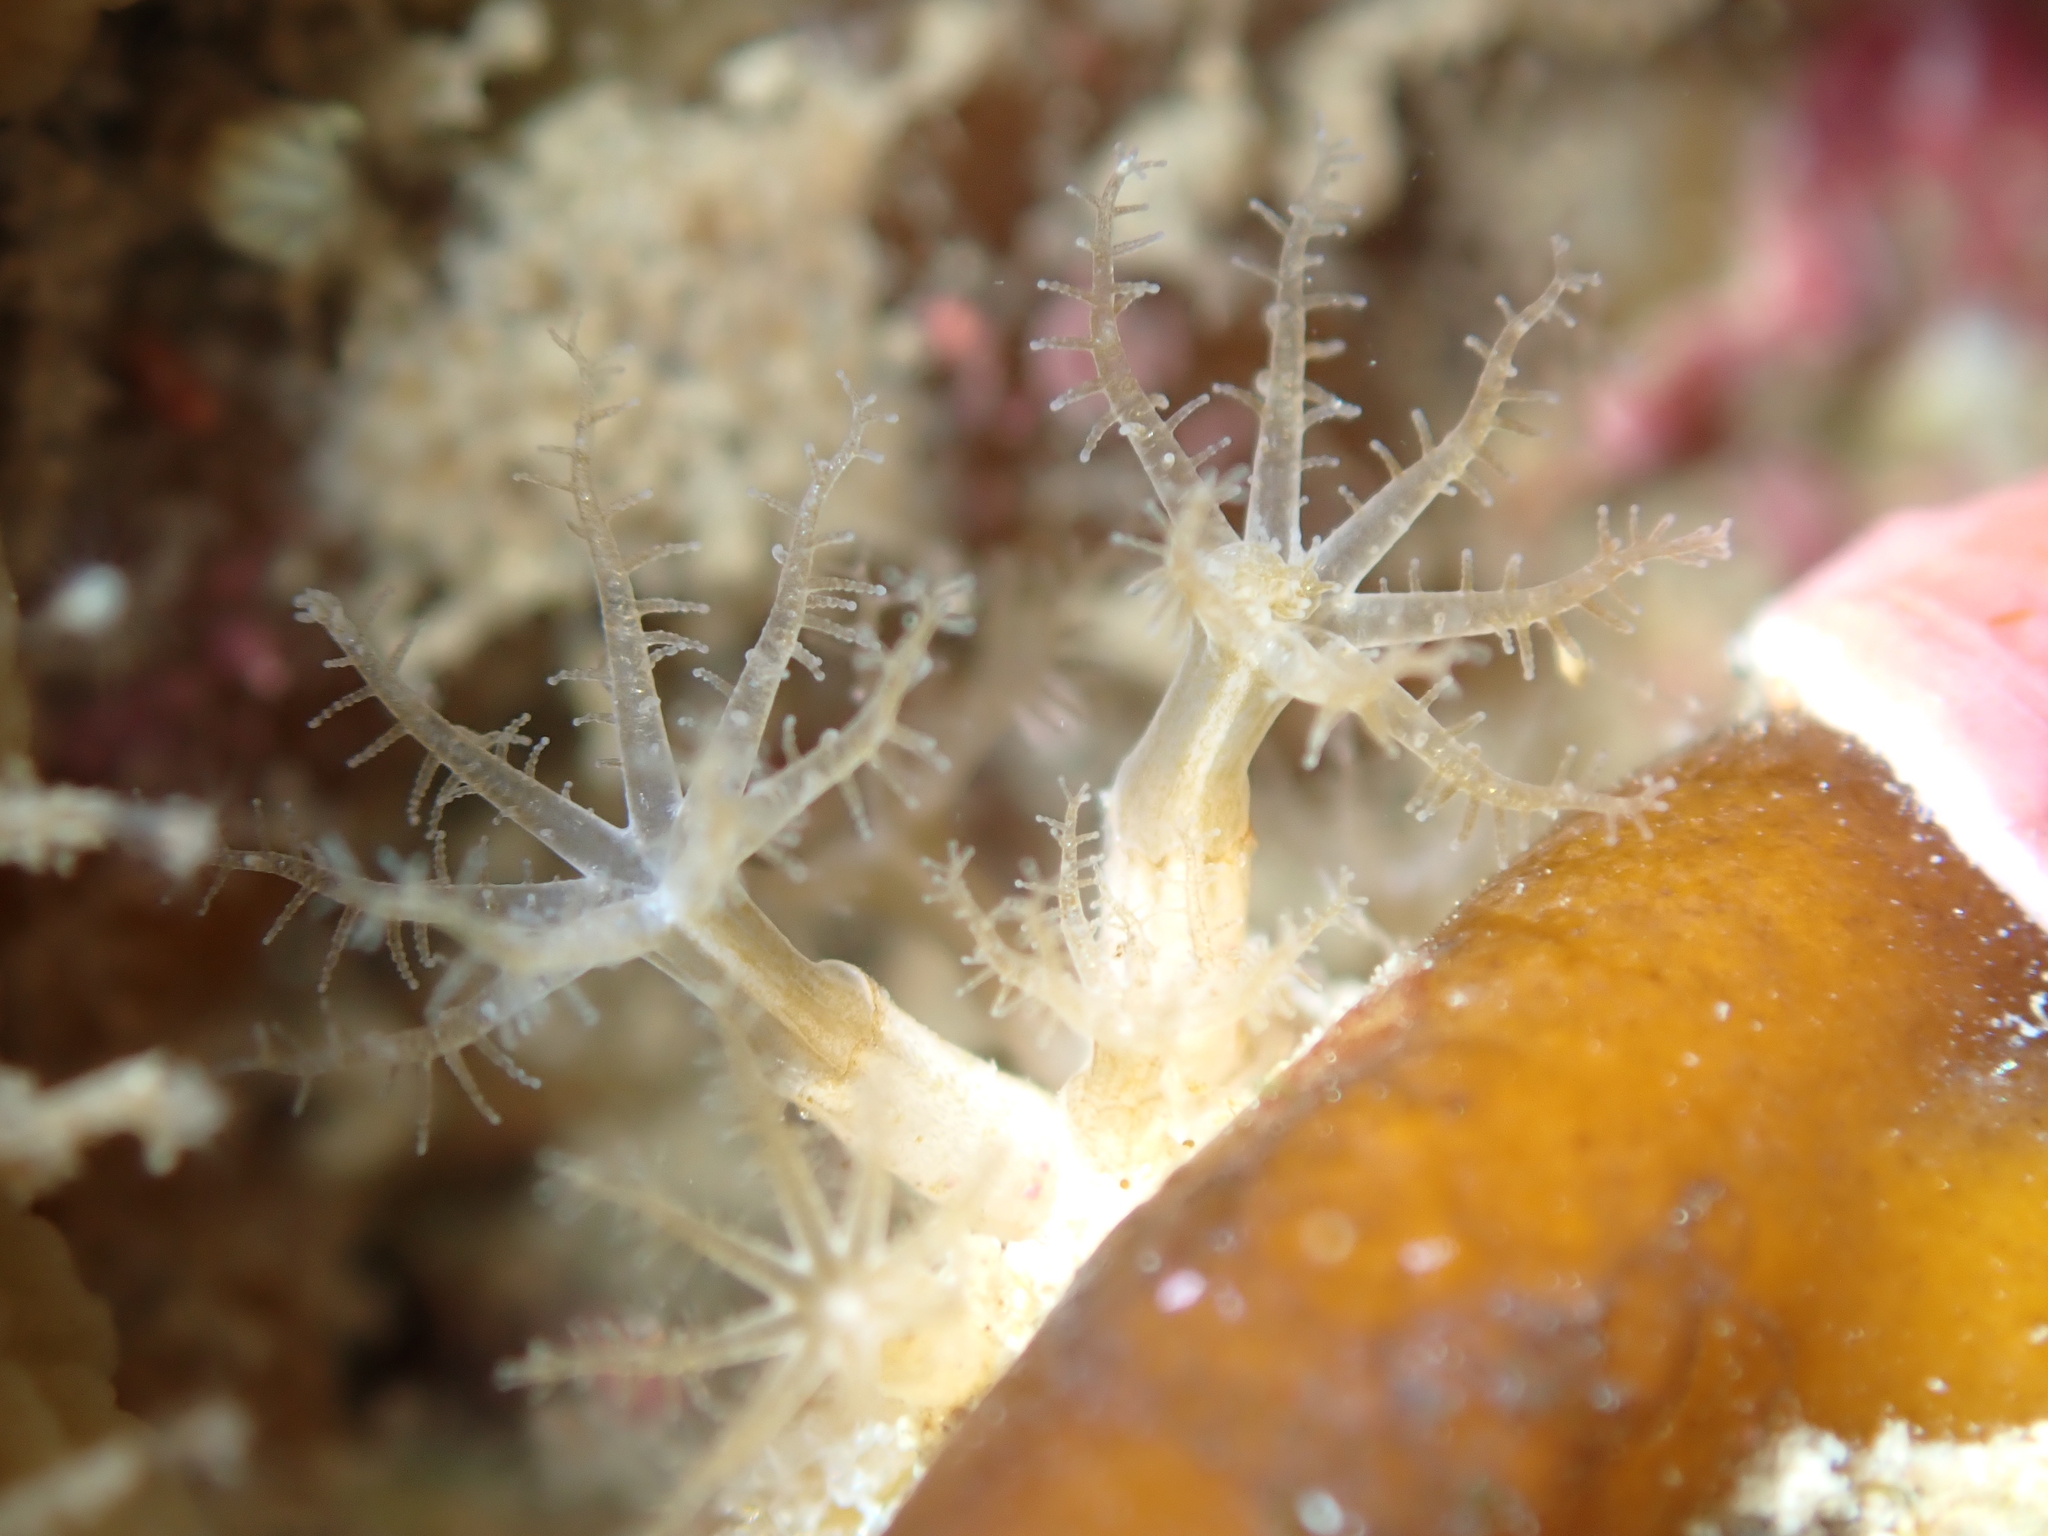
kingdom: Animalia
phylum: Cnidaria
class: Anthozoa
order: Malacalcyonacea
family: Clavulariidae
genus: Clavularia
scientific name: Clavularia novaezealandiae
